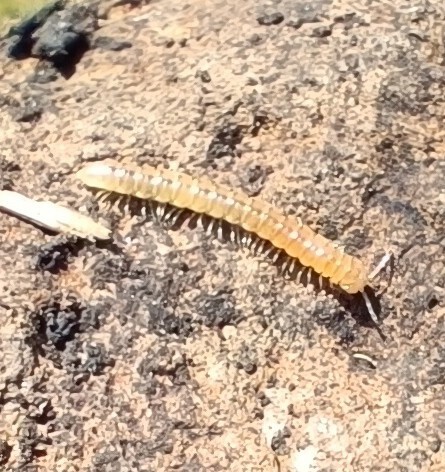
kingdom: Animalia
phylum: Arthropoda
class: Diplopoda
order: Polydesmida
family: Paradoxosomatidae
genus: Oxidus
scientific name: Oxidus gracilis
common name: Greenhouse millipede
